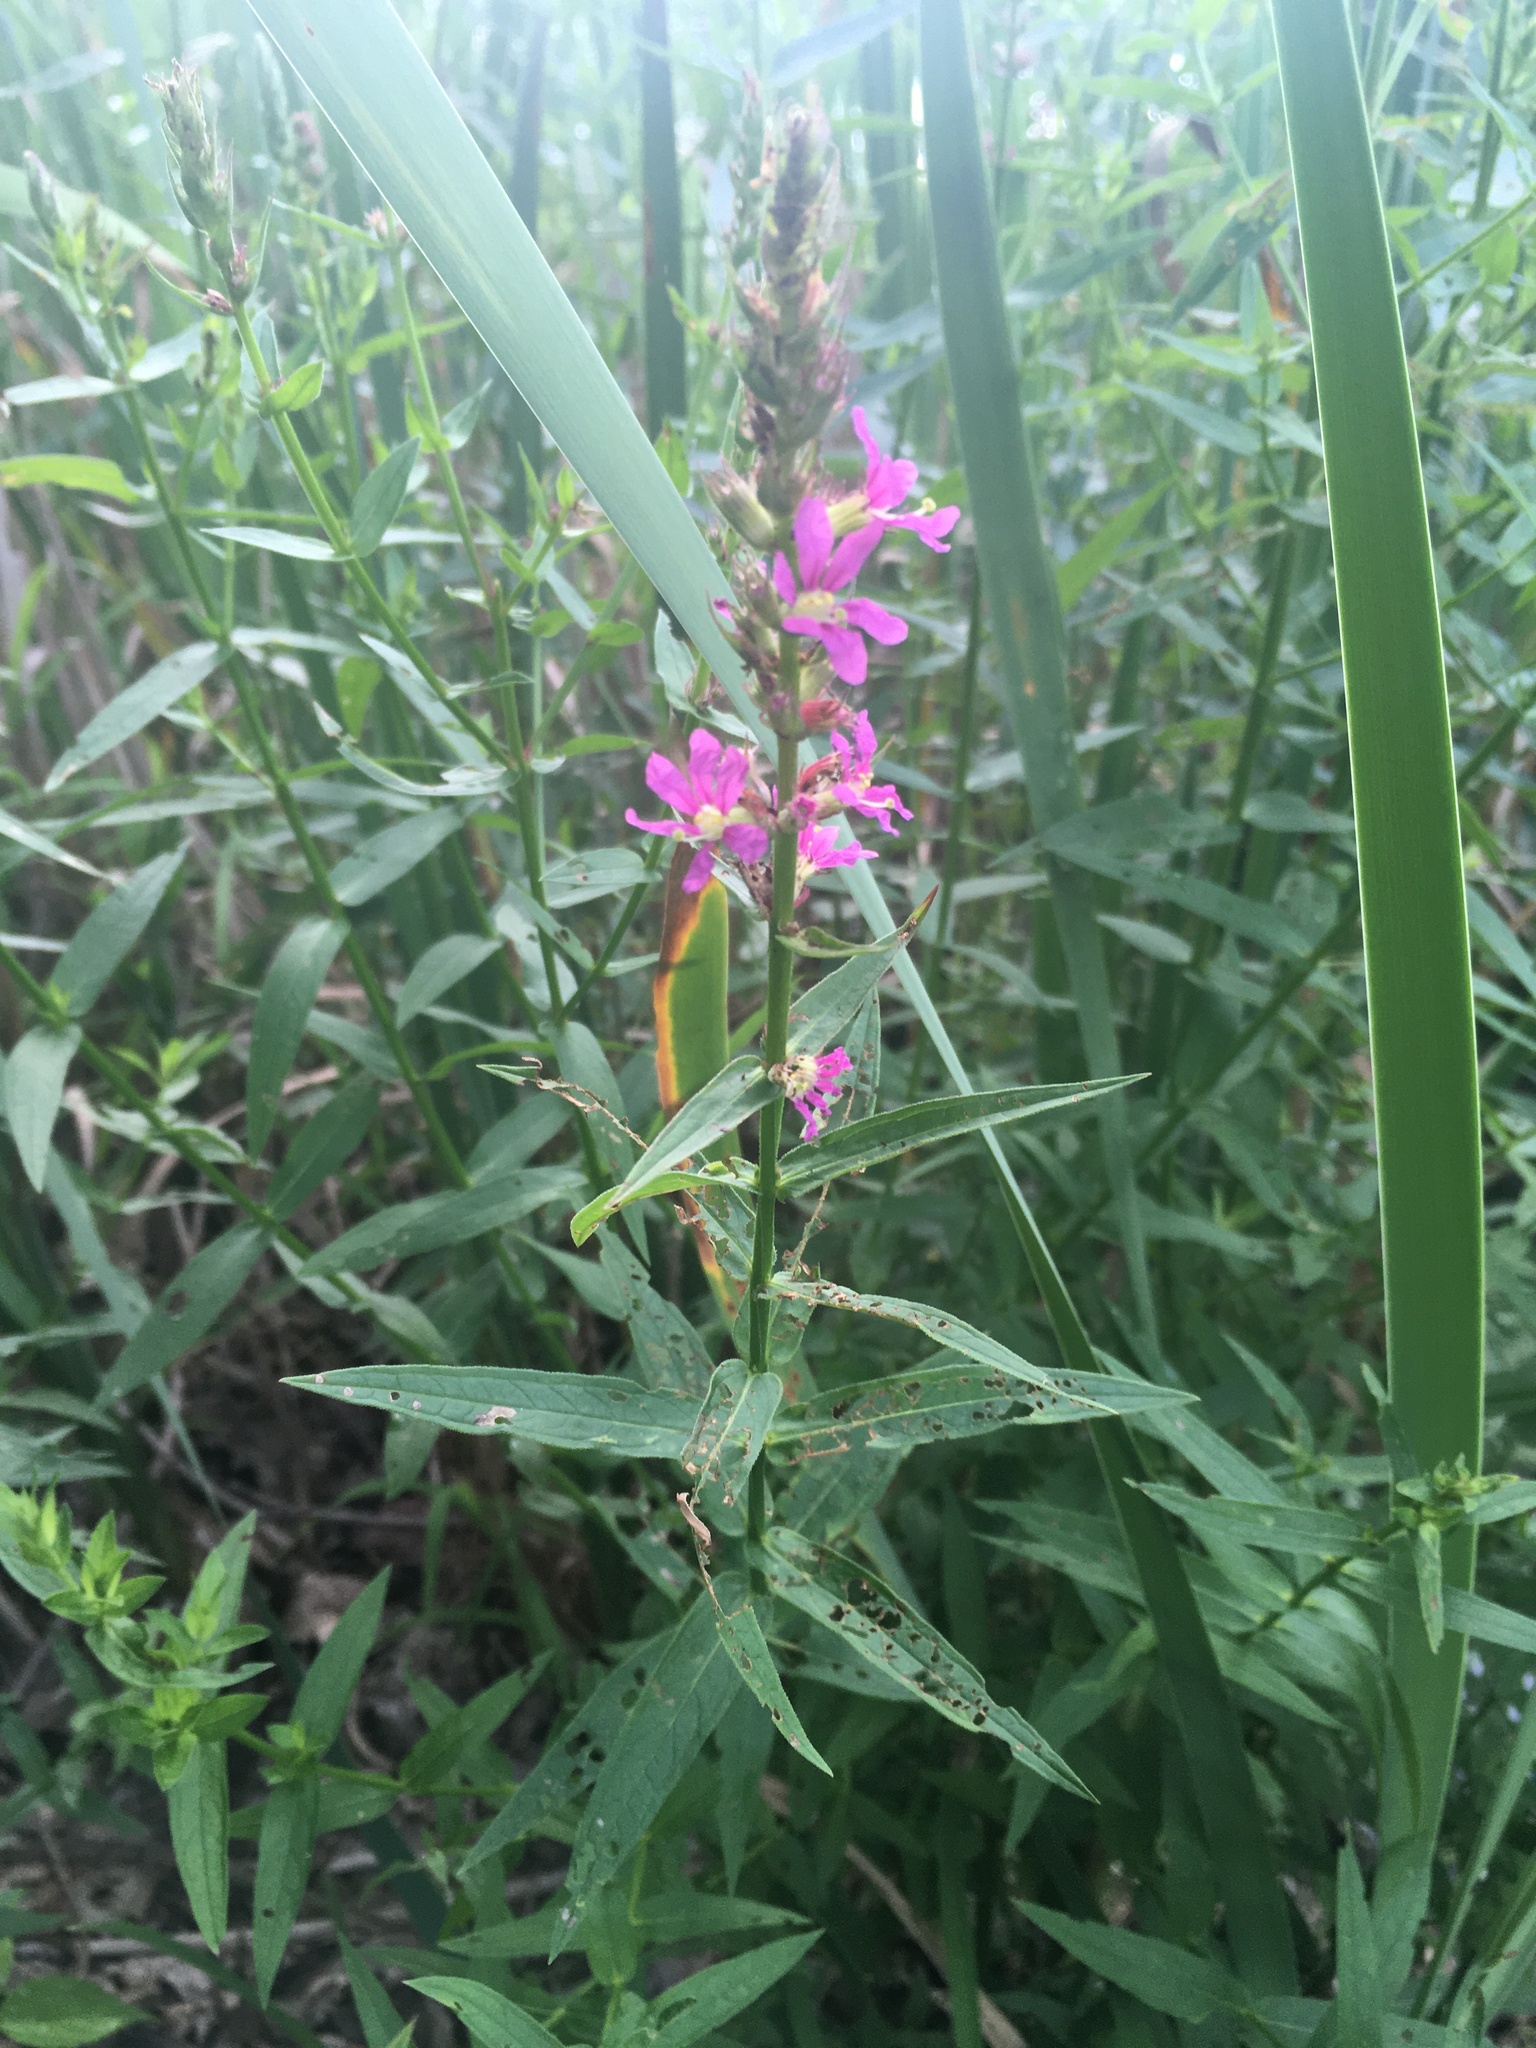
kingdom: Plantae
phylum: Tracheophyta
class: Magnoliopsida
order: Myrtales
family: Lythraceae
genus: Lythrum
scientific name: Lythrum salicaria
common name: Purple loosestrife
